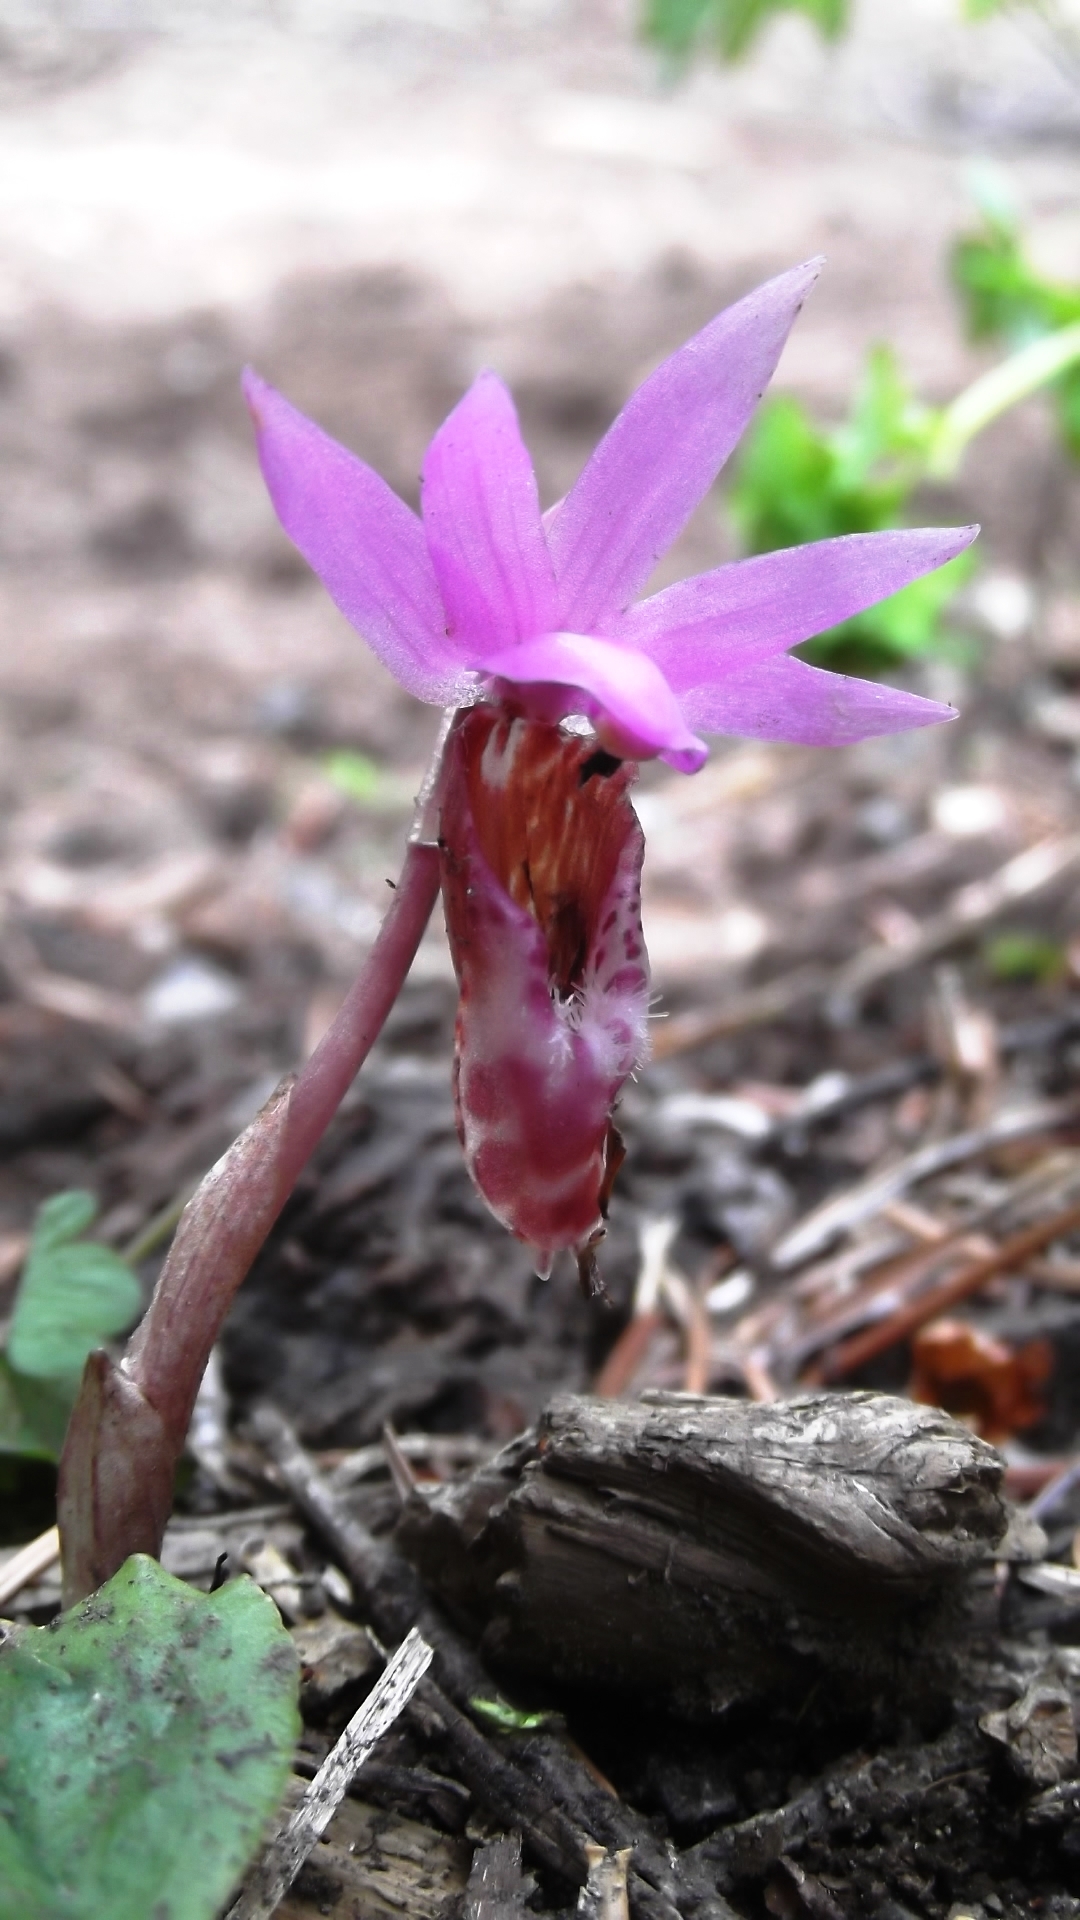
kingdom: Plantae
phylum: Tracheophyta
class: Liliopsida
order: Asparagales
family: Orchidaceae
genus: Calypso
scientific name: Calypso bulbosa
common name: Calypso
